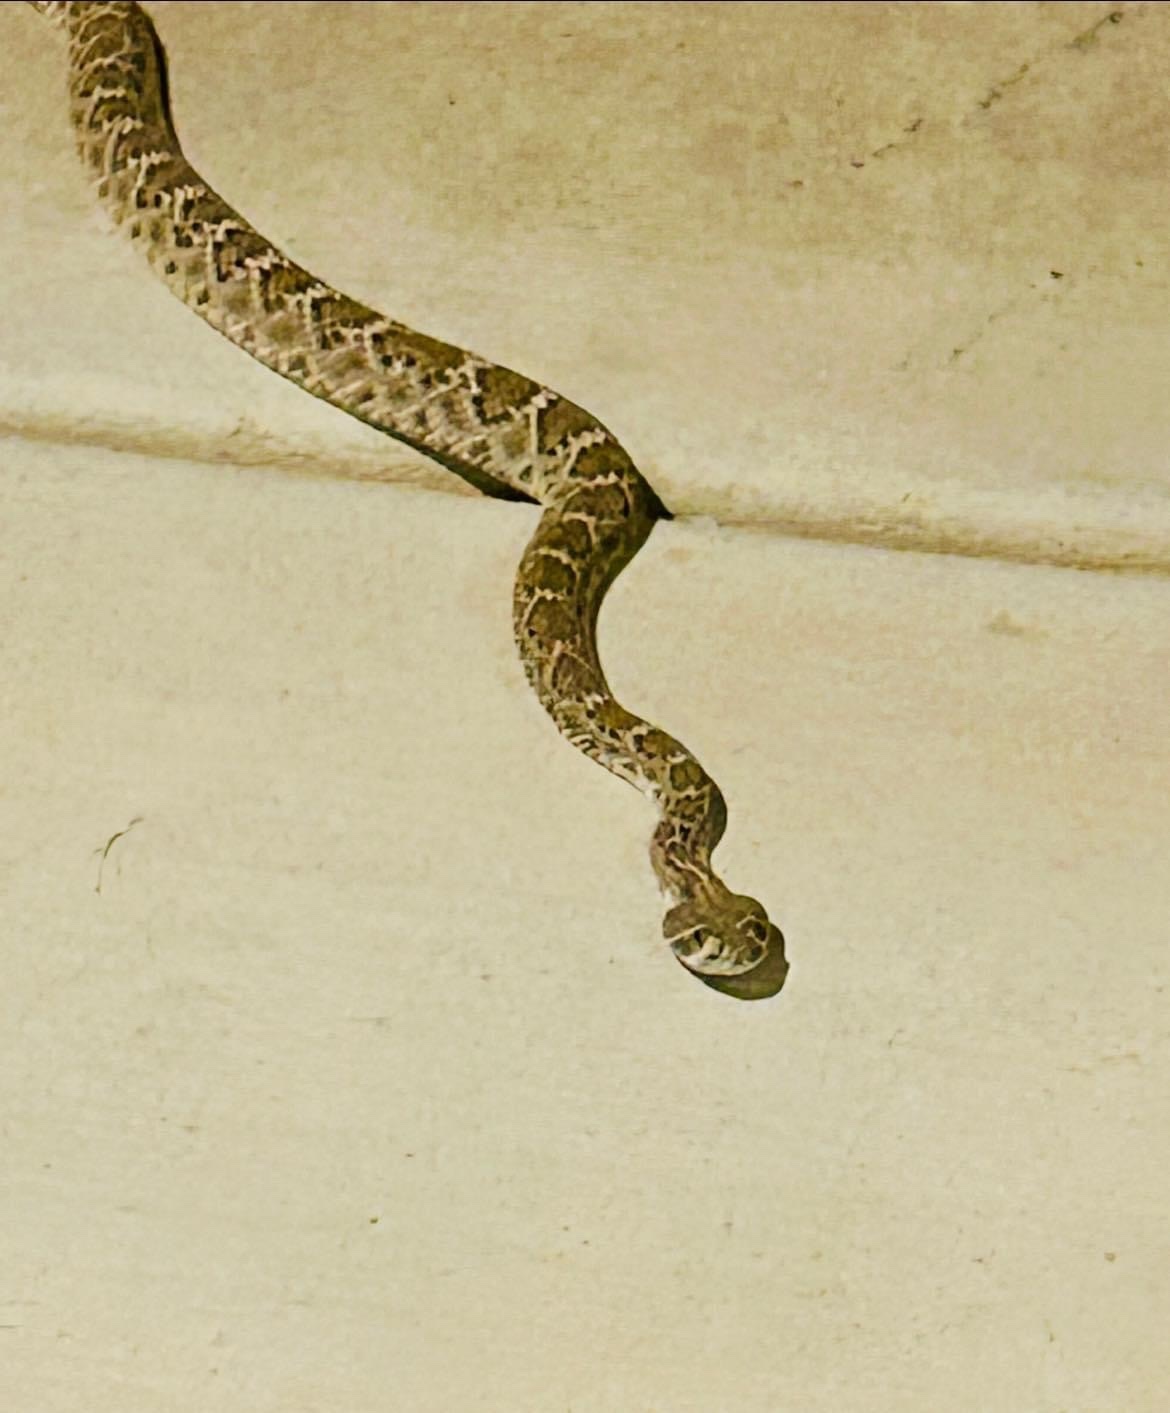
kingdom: Animalia
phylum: Chordata
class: Squamata
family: Viperidae
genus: Crotalus
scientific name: Crotalus atrox
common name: Western diamond-backed rattlesnake
